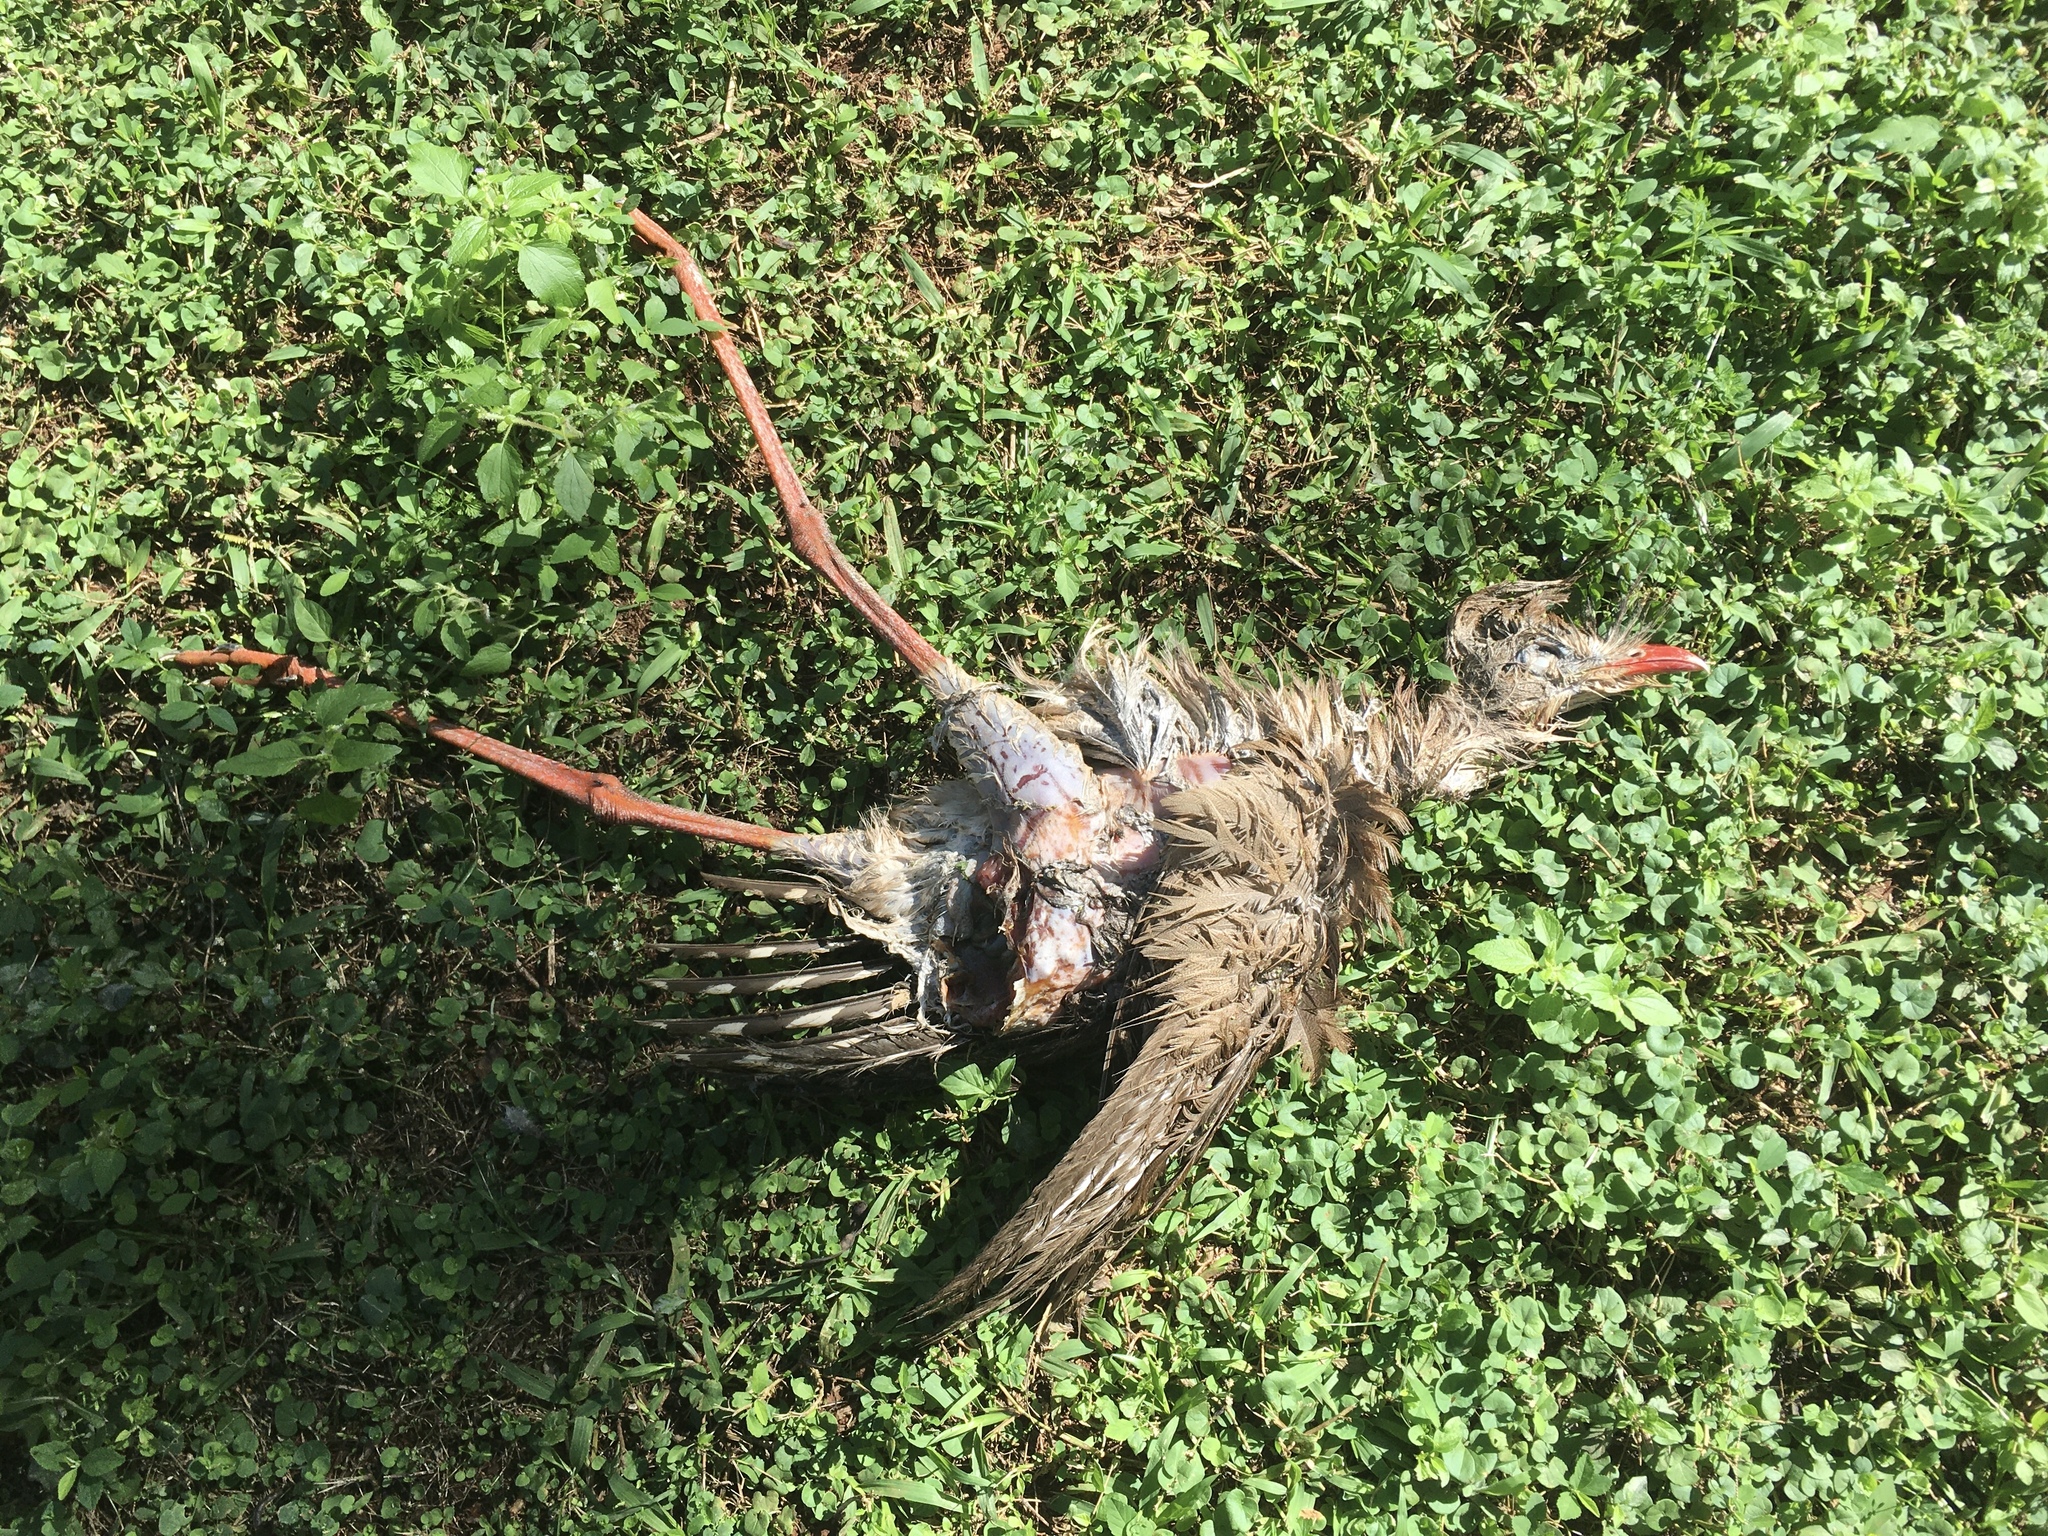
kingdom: Animalia
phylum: Chordata
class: Aves
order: Cariamiformes
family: Cariamidae
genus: Cariama
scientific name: Cariama cristata
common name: Red-legged seriema
